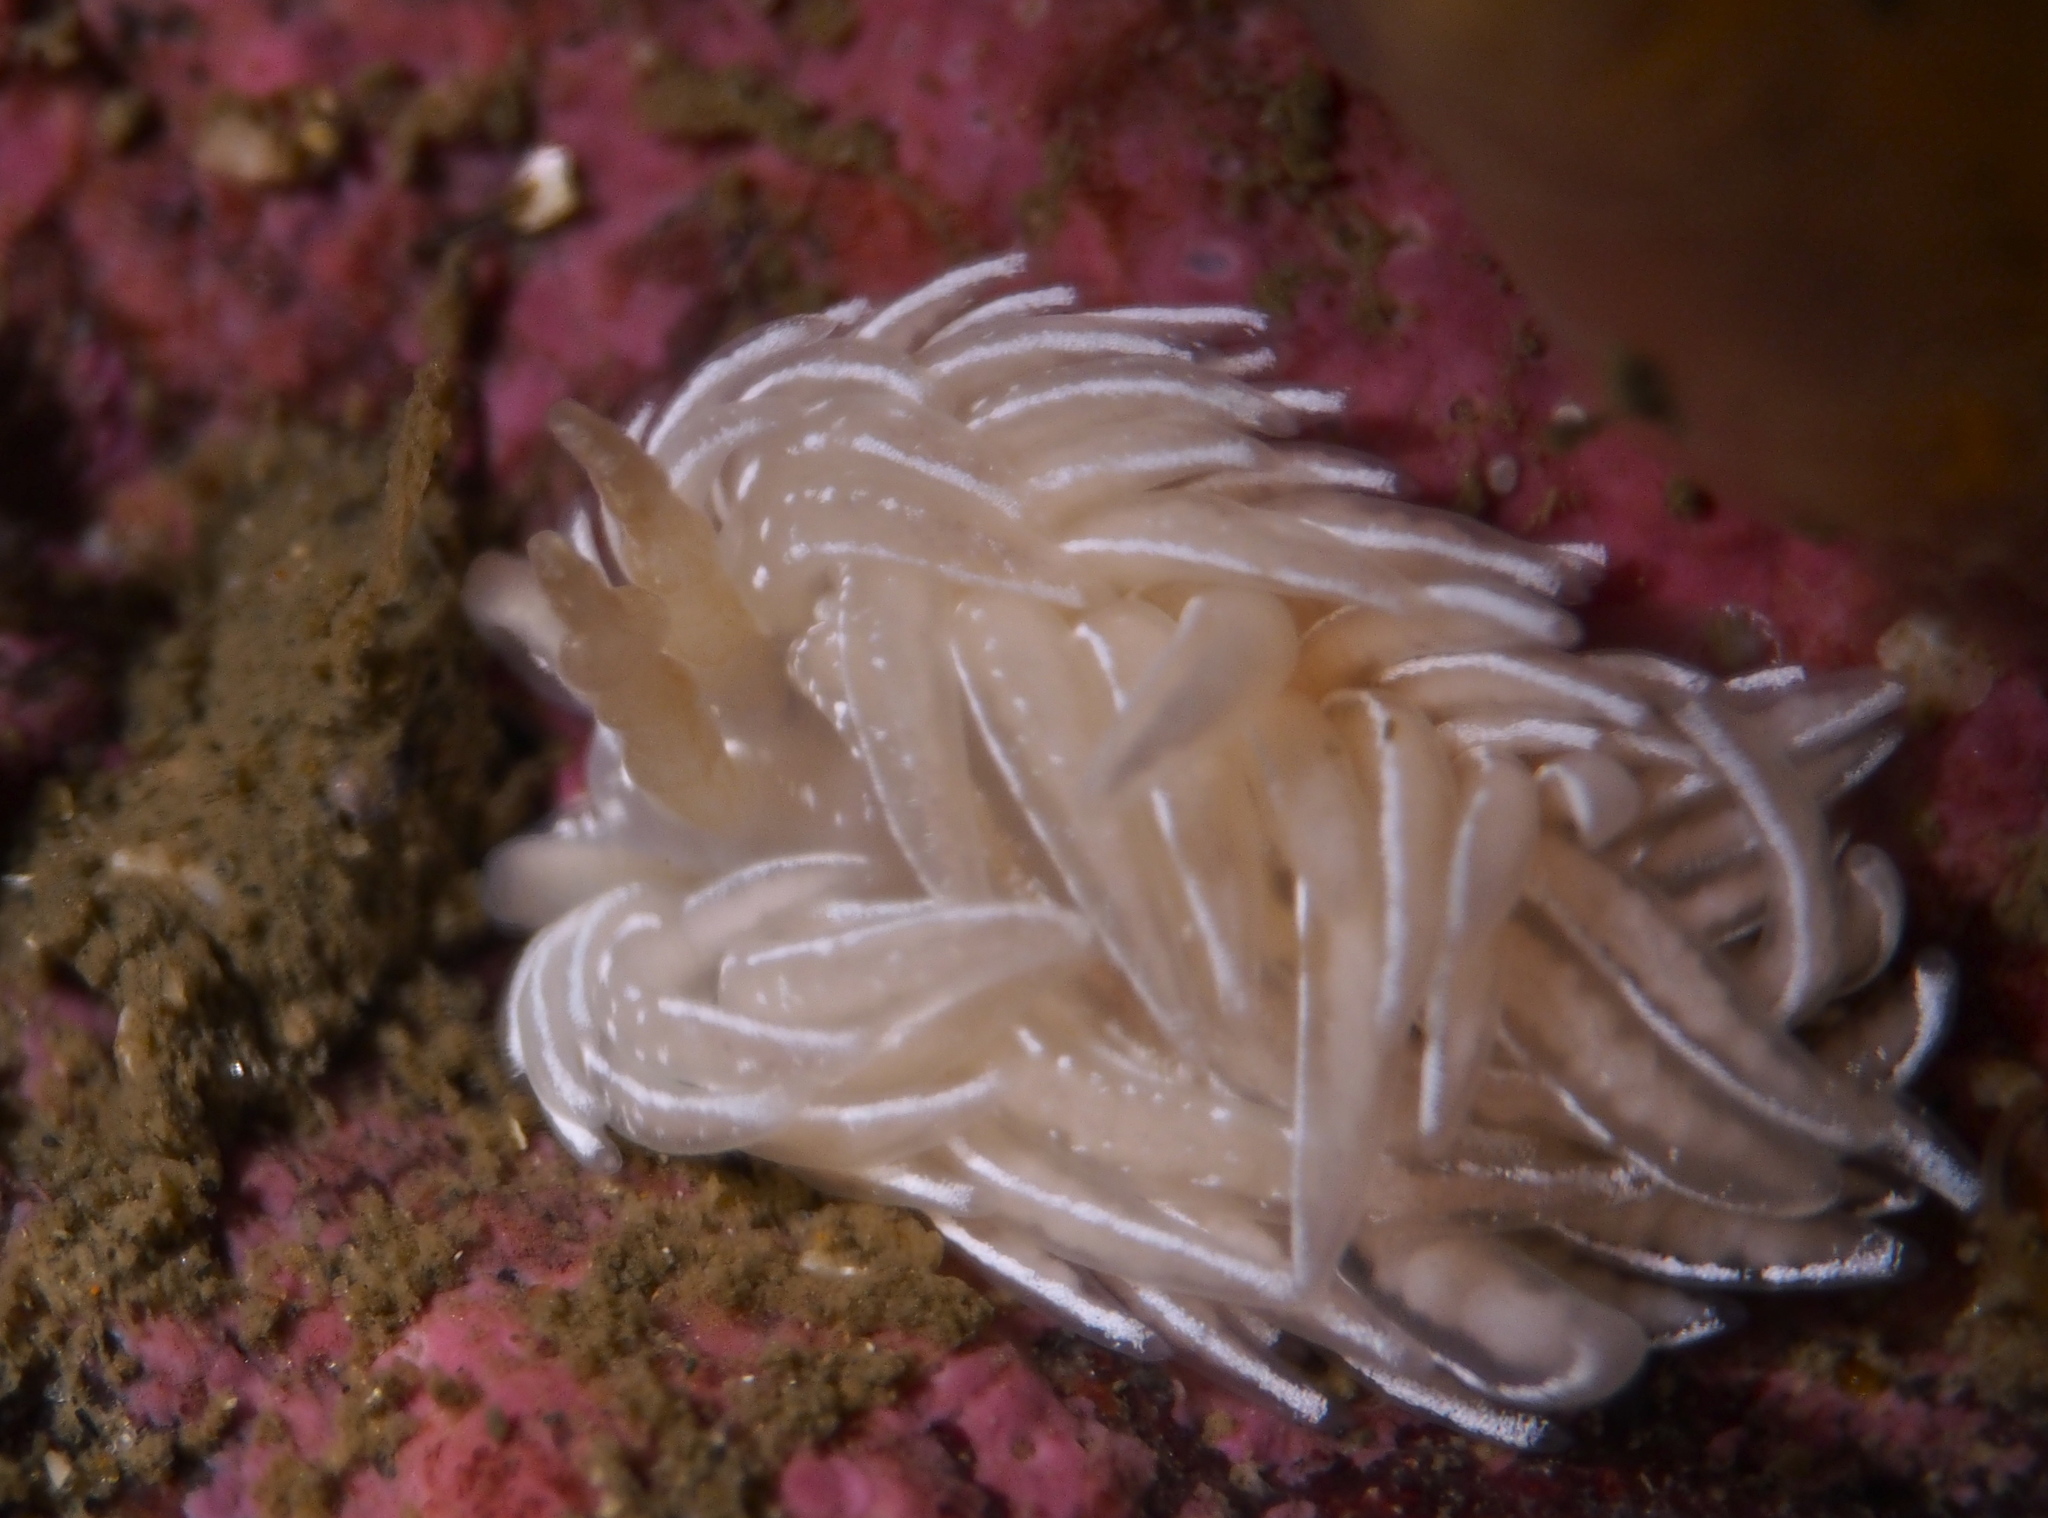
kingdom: Animalia
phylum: Mollusca
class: Gastropoda
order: Nudibranchia
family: Facelinidae
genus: Favorinus
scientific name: Favorinus blianus
